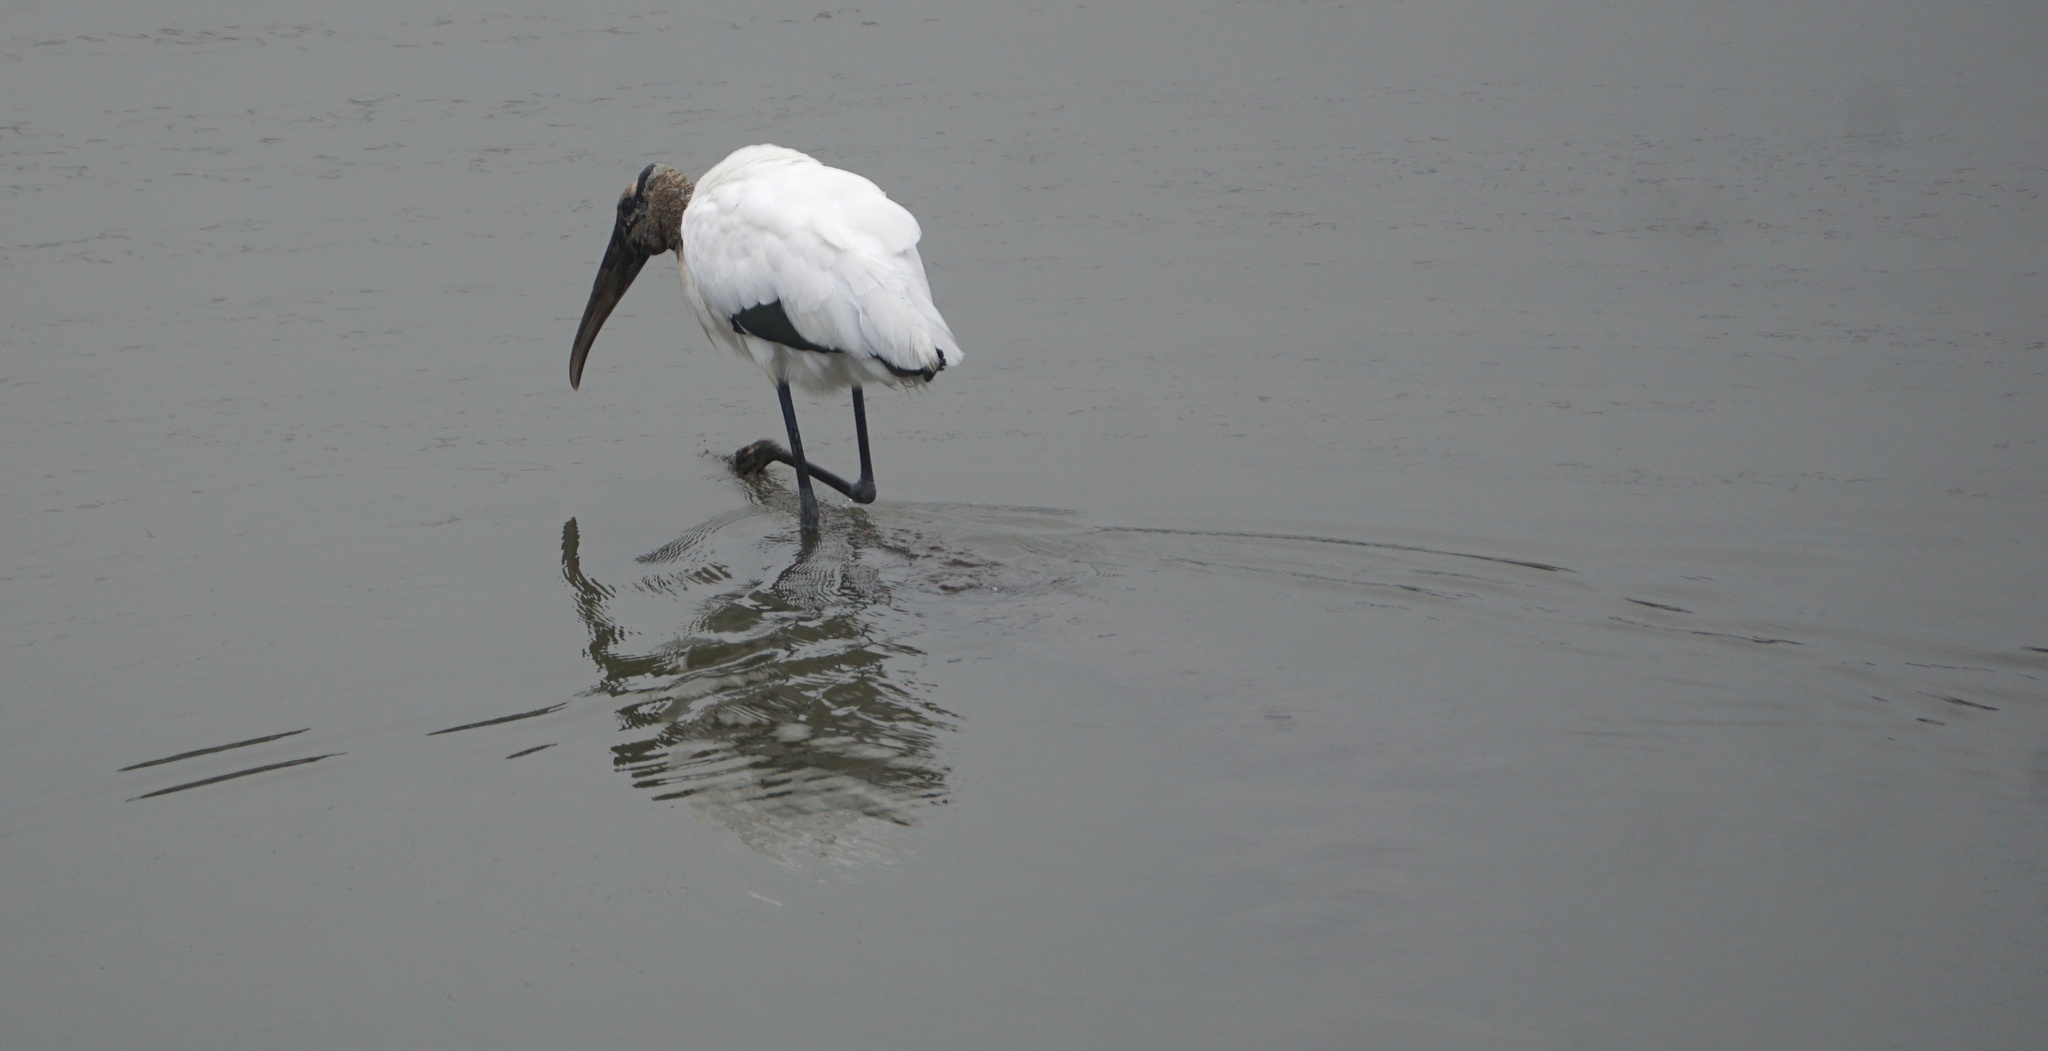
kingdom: Animalia
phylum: Chordata
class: Aves
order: Ciconiiformes
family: Ciconiidae
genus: Mycteria
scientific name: Mycteria americana
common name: Wood stork
